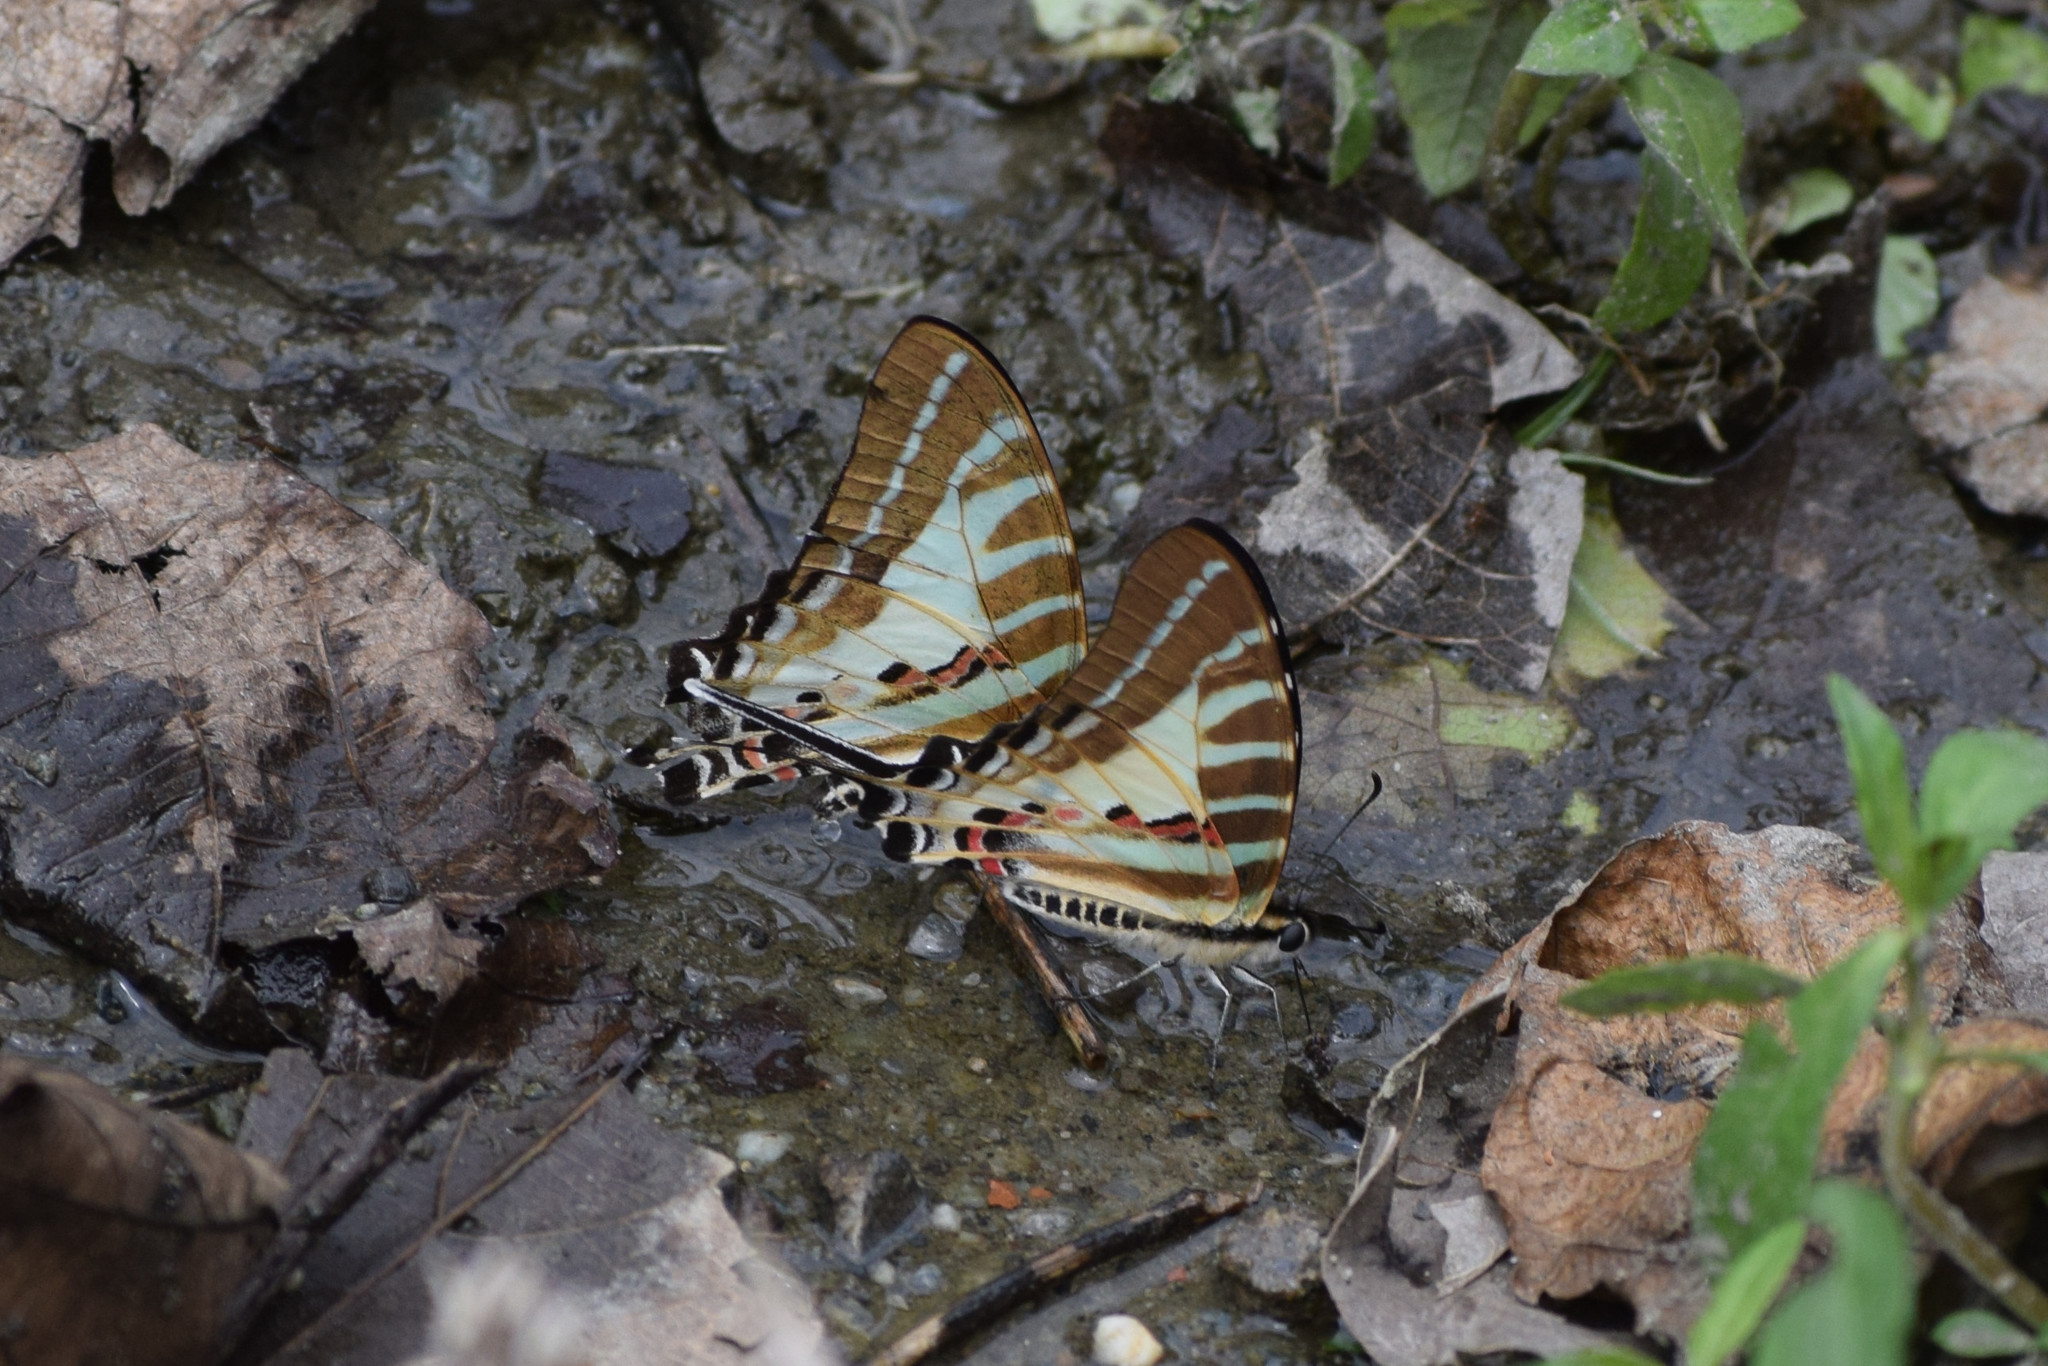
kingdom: Animalia
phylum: Arthropoda
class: Insecta
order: Lepidoptera
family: Papilionidae
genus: Graphium
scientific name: Graphium aristeus
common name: Chain swordtail
